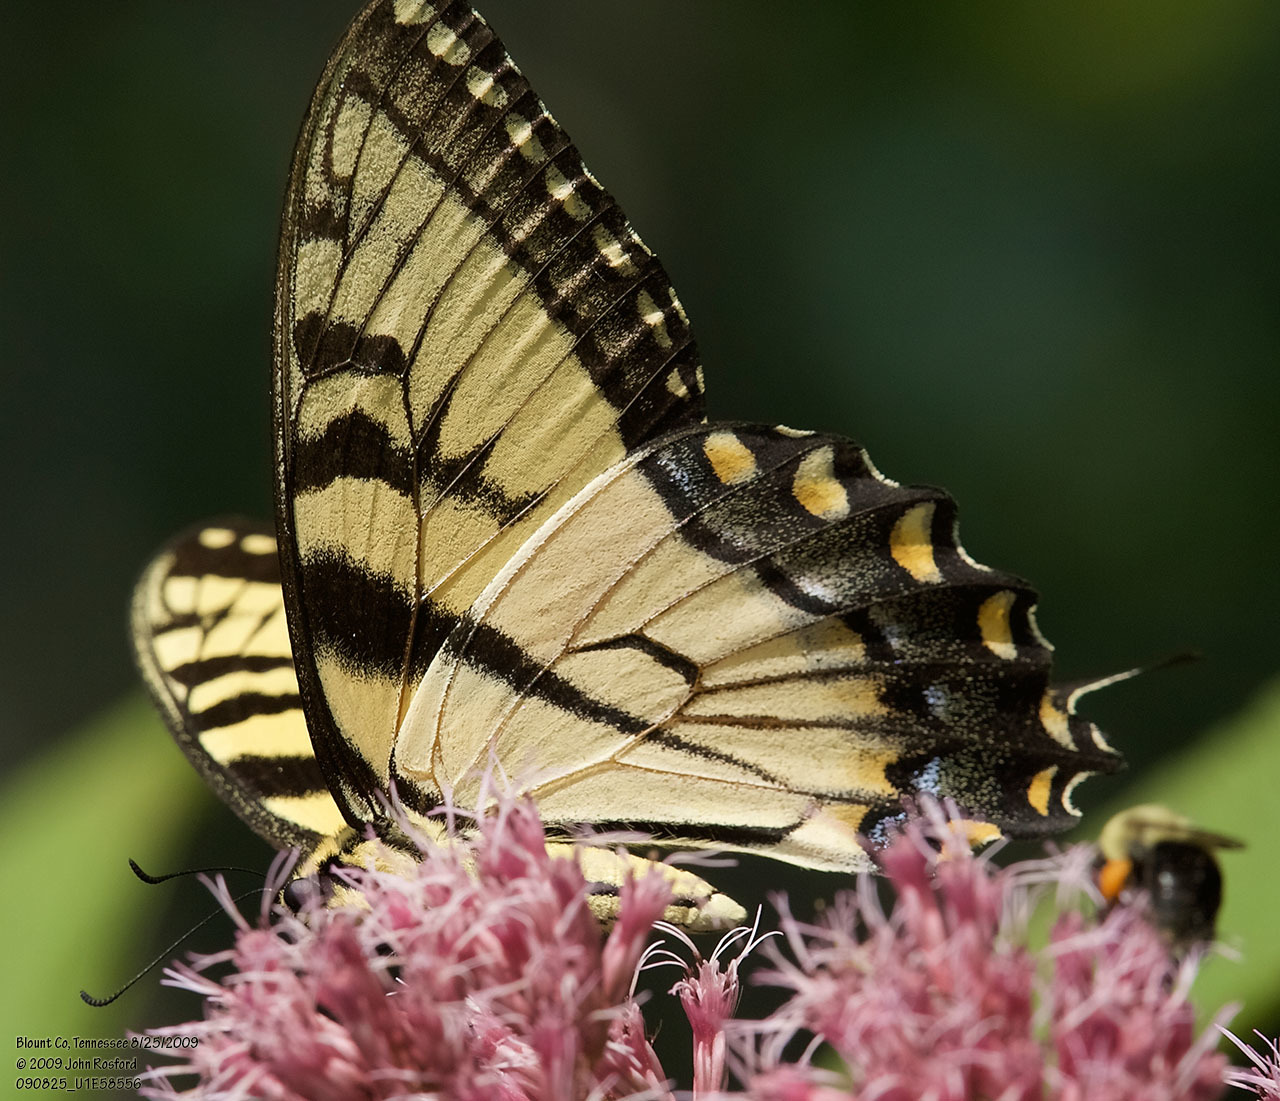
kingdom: Animalia
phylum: Arthropoda
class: Insecta
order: Lepidoptera
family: Papilionidae
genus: Papilio
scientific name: Papilio glaucus
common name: Tiger swallowtail
